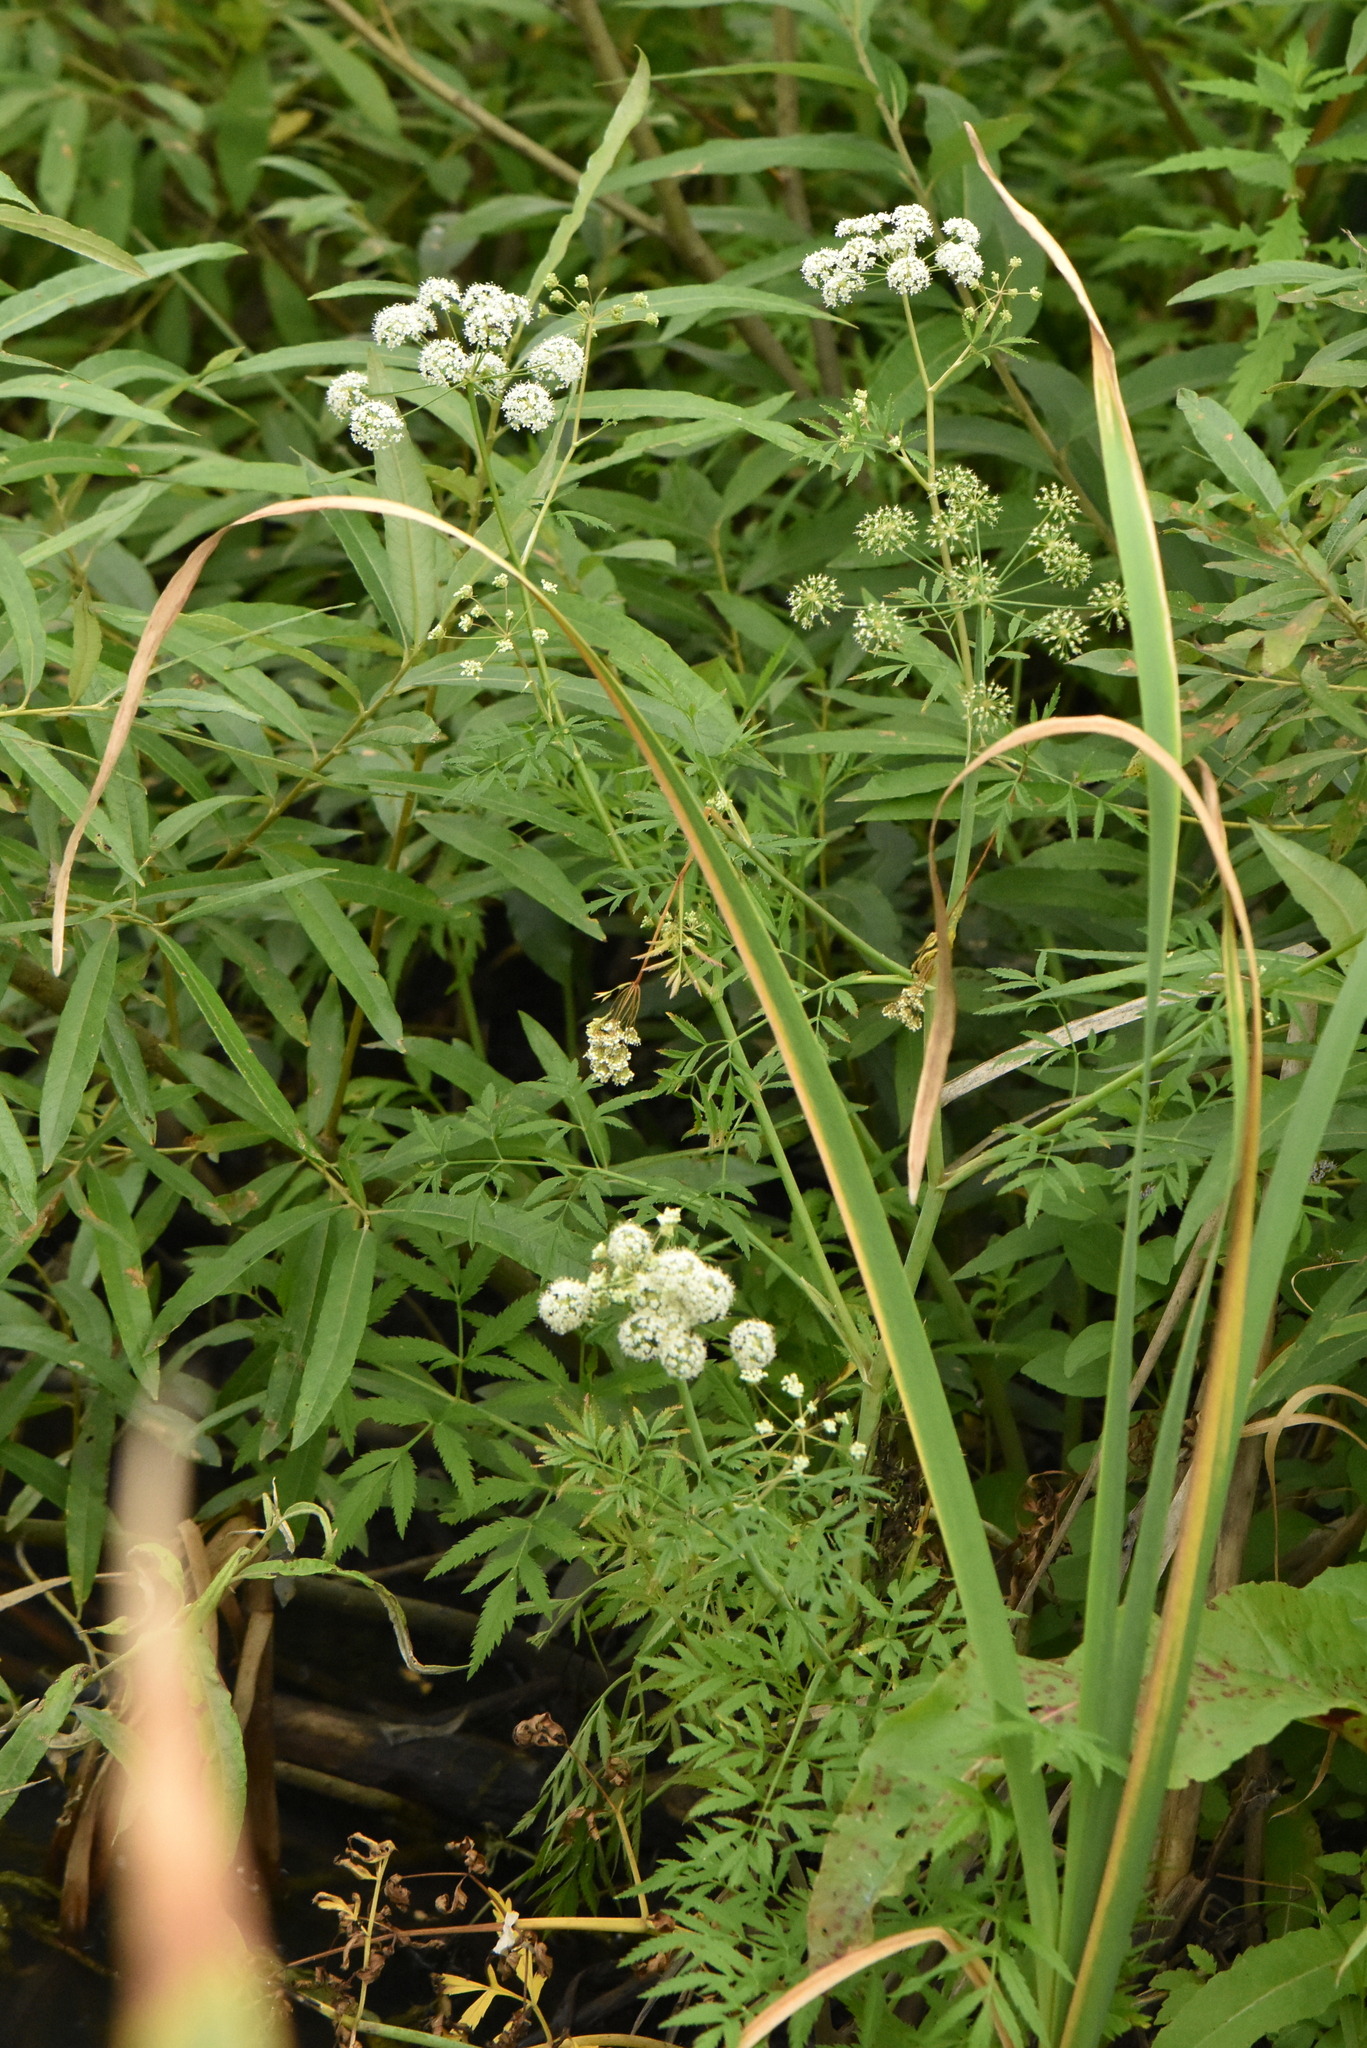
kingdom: Plantae
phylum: Tracheophyta
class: Magnoliopsida
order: Apiales
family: Apiaceae
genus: Cicuta
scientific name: Cicuta virosa
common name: Cowbane
